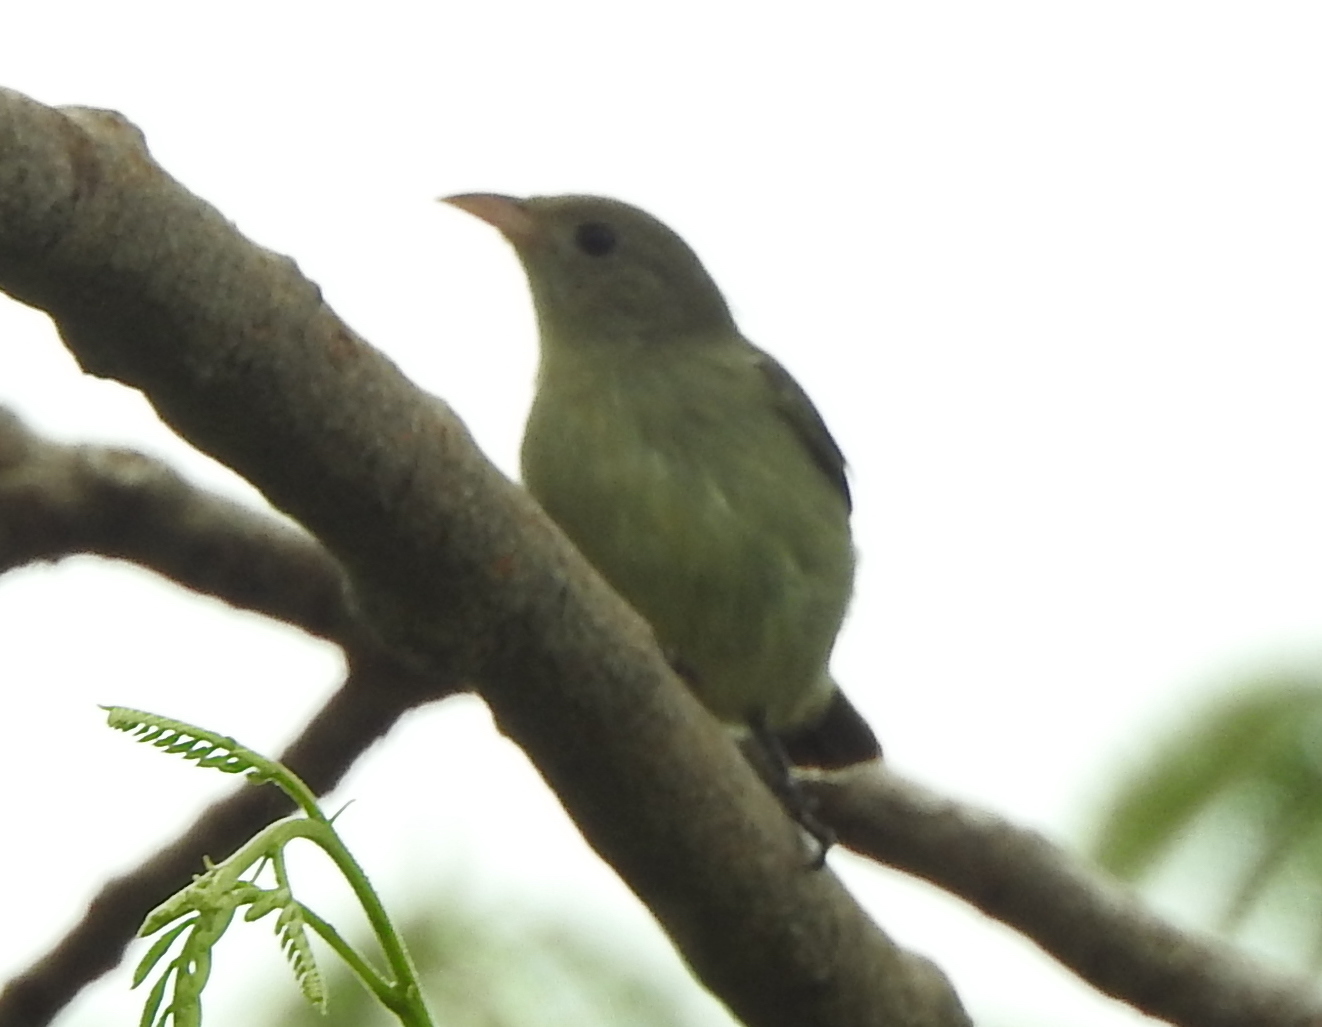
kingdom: Animalia
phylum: Chordata
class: Aves
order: Passeriformes
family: Dicaeidae
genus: Dicaeum
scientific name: Dicaeum erythrorhynchos
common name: Pale-billed flowerpecker
